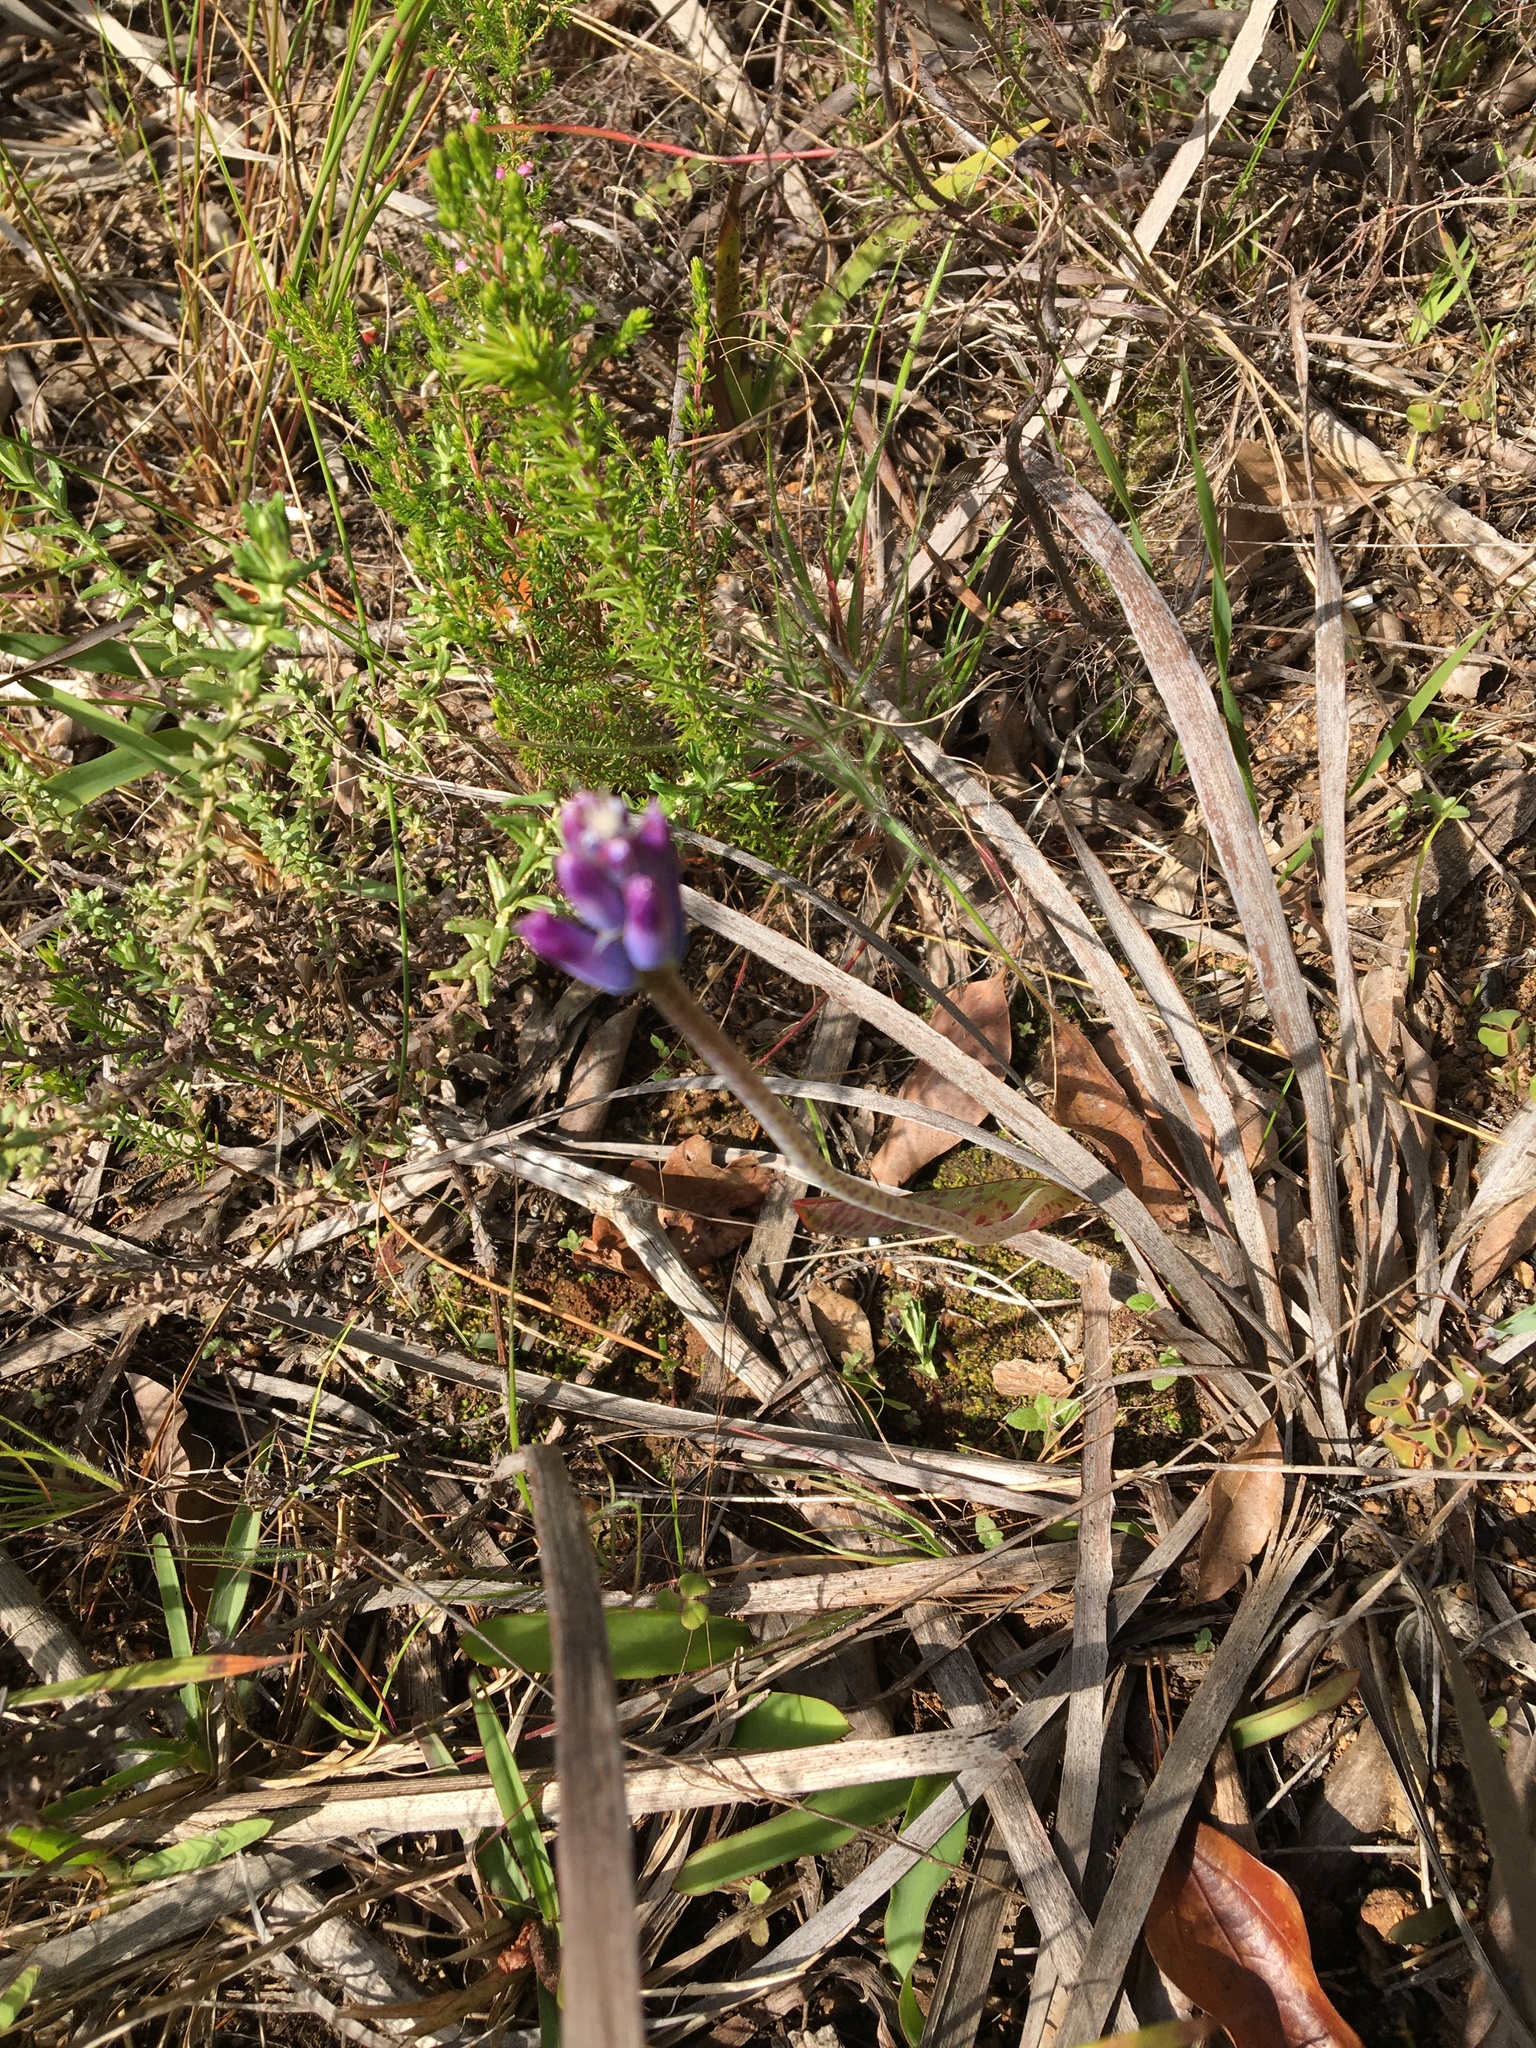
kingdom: Plantae
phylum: Tracheophyta
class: Liliopsida
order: Asparagales
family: Asparagaceae
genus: Lachenalia
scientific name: Lachenalia glaucina
